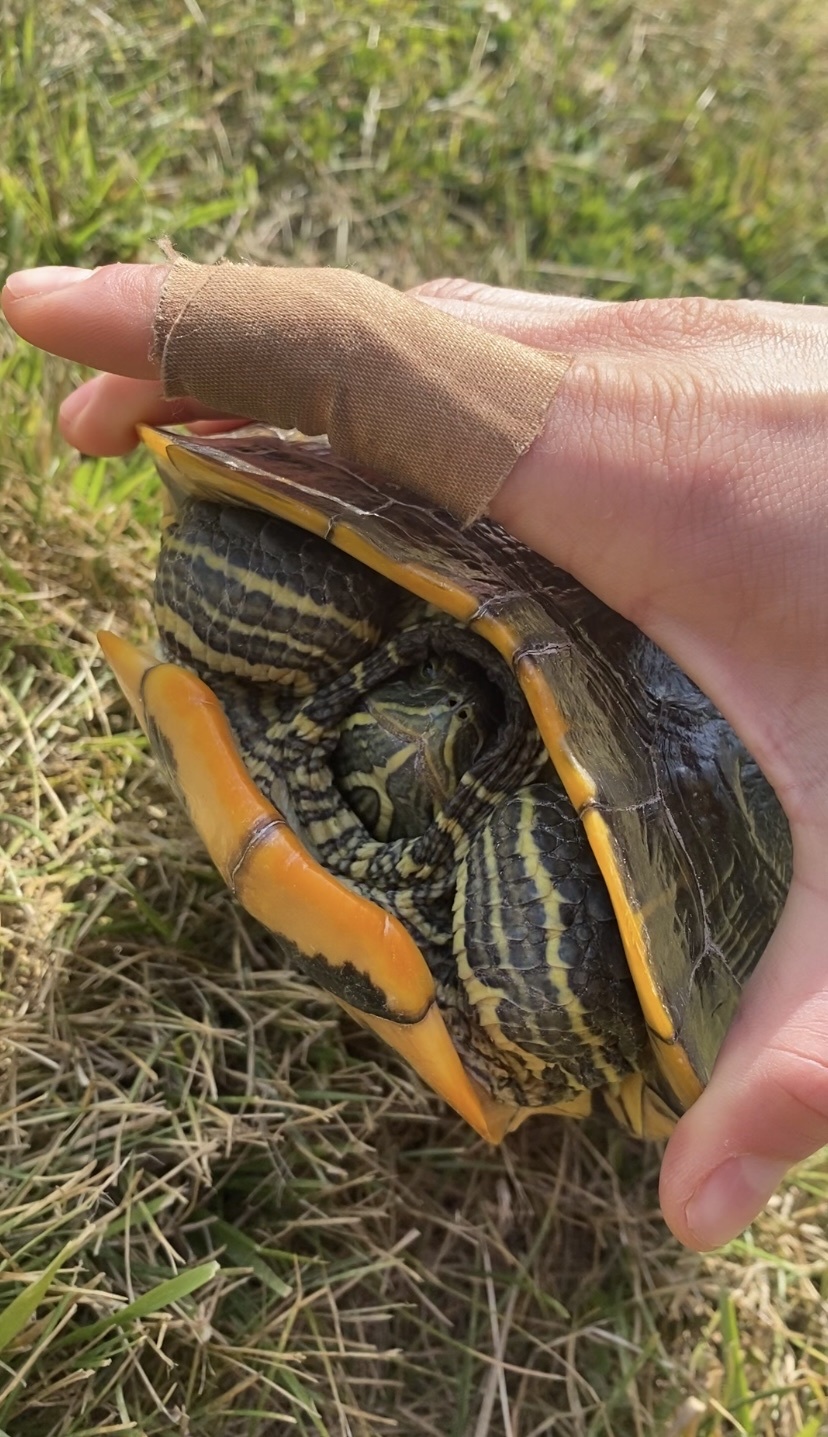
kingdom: Animalia
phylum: Chordata
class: Testudines
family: Emydidae
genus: Trachemys
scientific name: Trachemys scripta
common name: Slider
